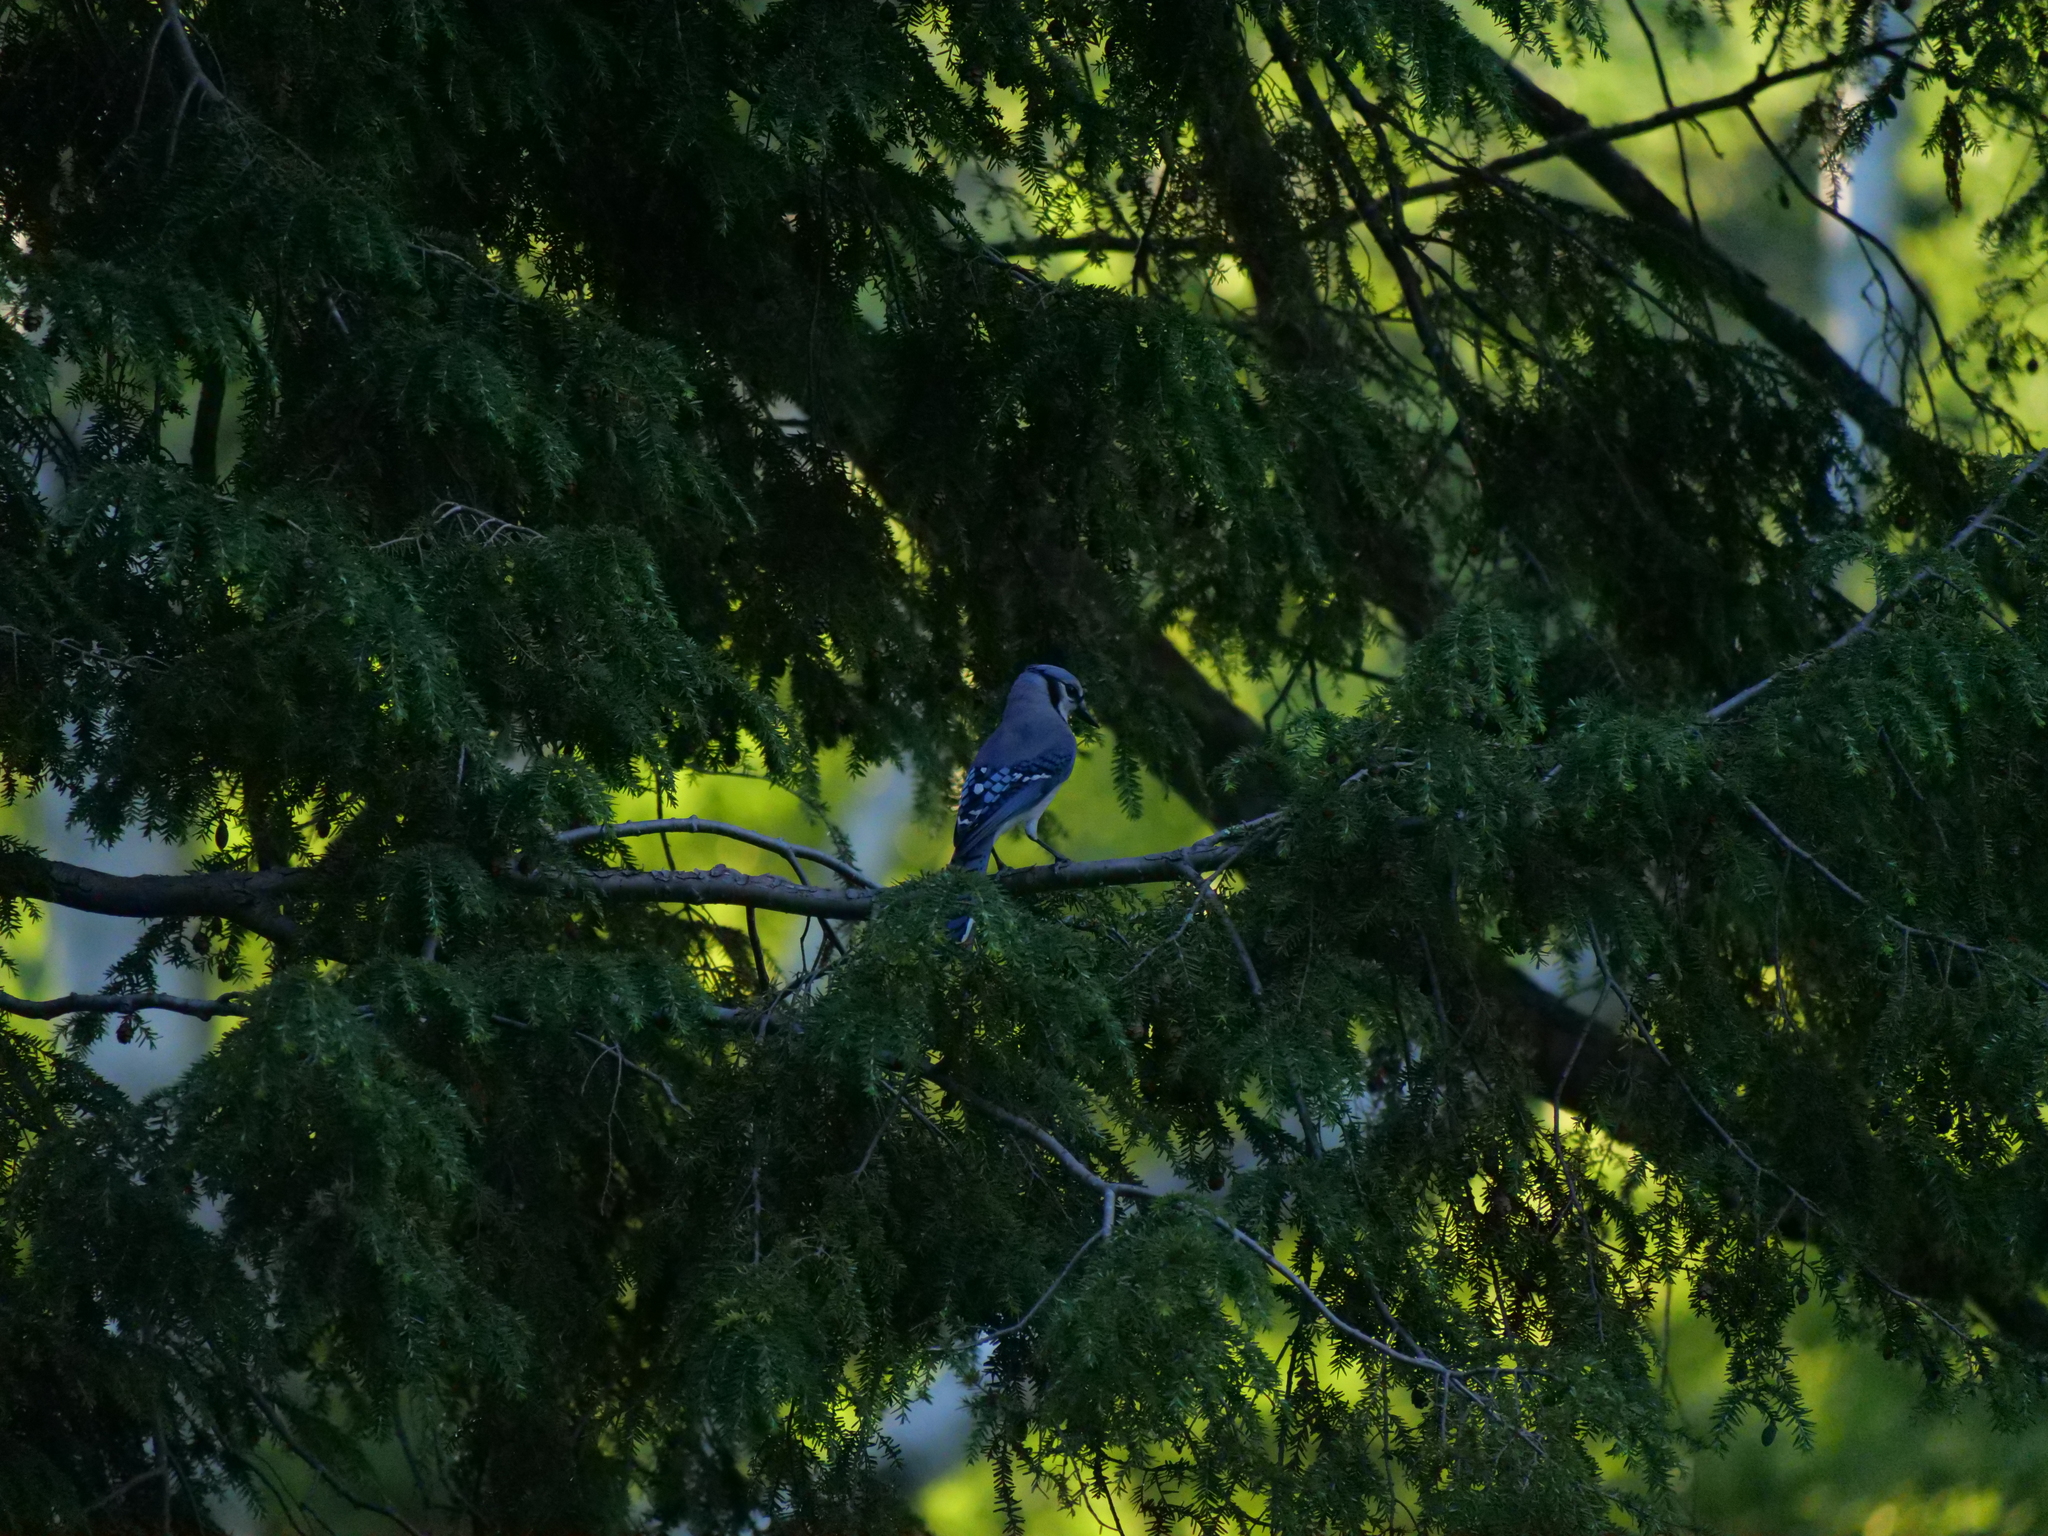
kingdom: Animalia
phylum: Chordata
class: Aves
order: Passeriformes
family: Corvidae
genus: Cyanocitta
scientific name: Cyanocitta cristata
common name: Blue jay
